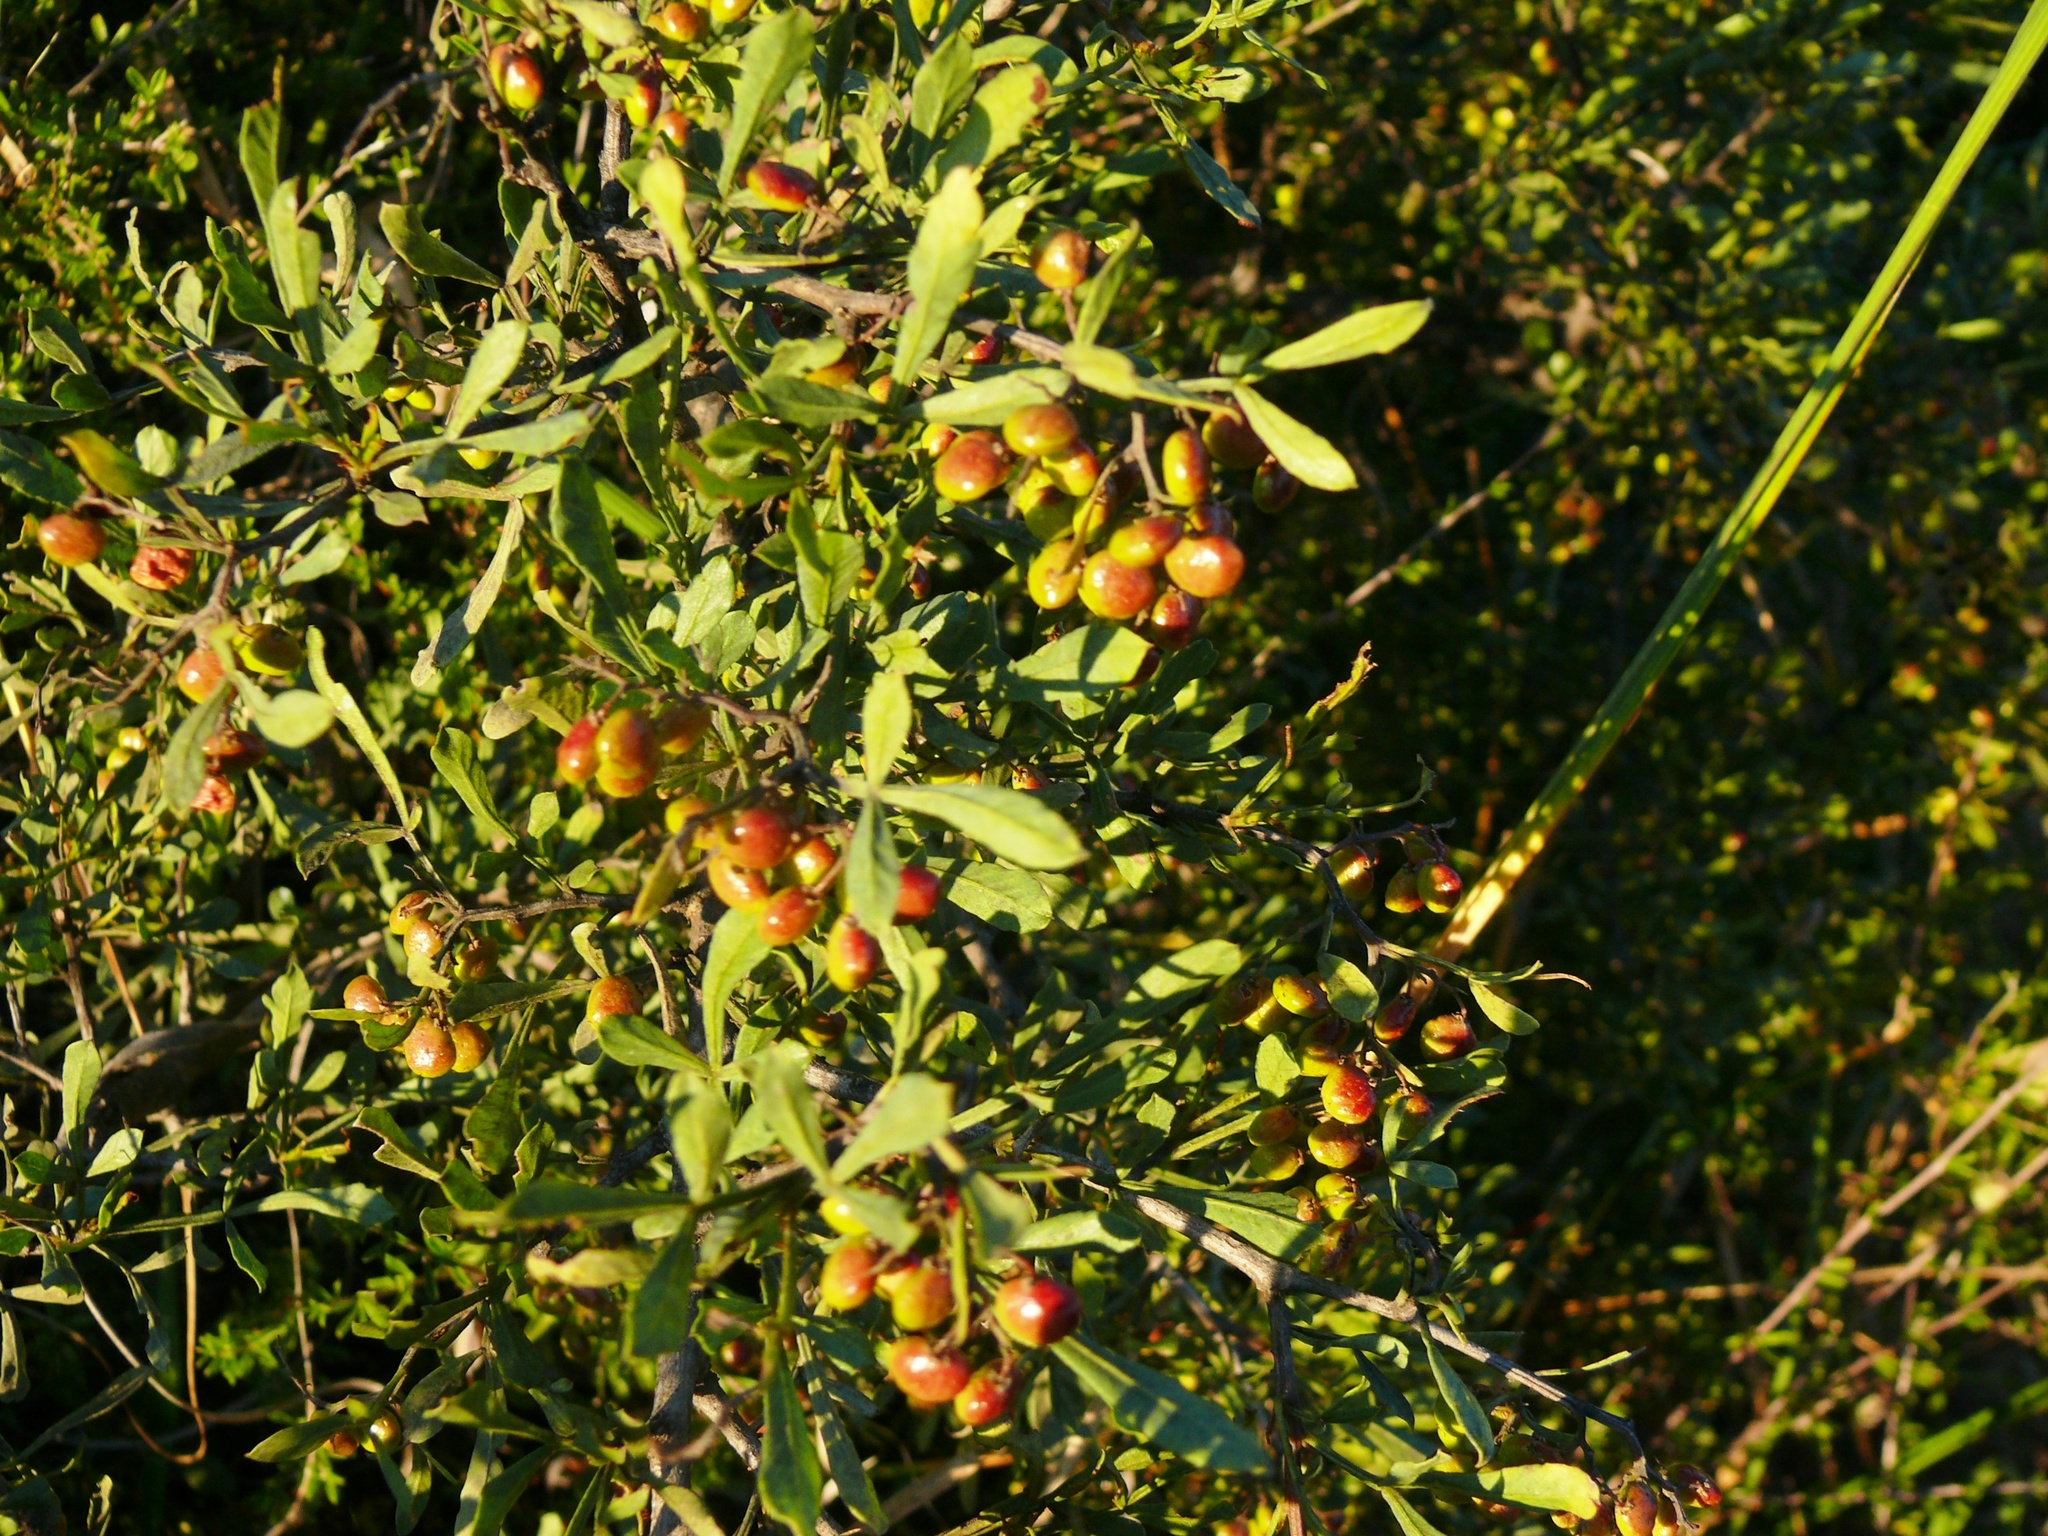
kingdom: Plantae
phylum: Tracheophyta
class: Magnoliopsida
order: Sapindales
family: Anacardiaceae
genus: Searsia
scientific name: Searsia undulata
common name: Namaqua kunibush
